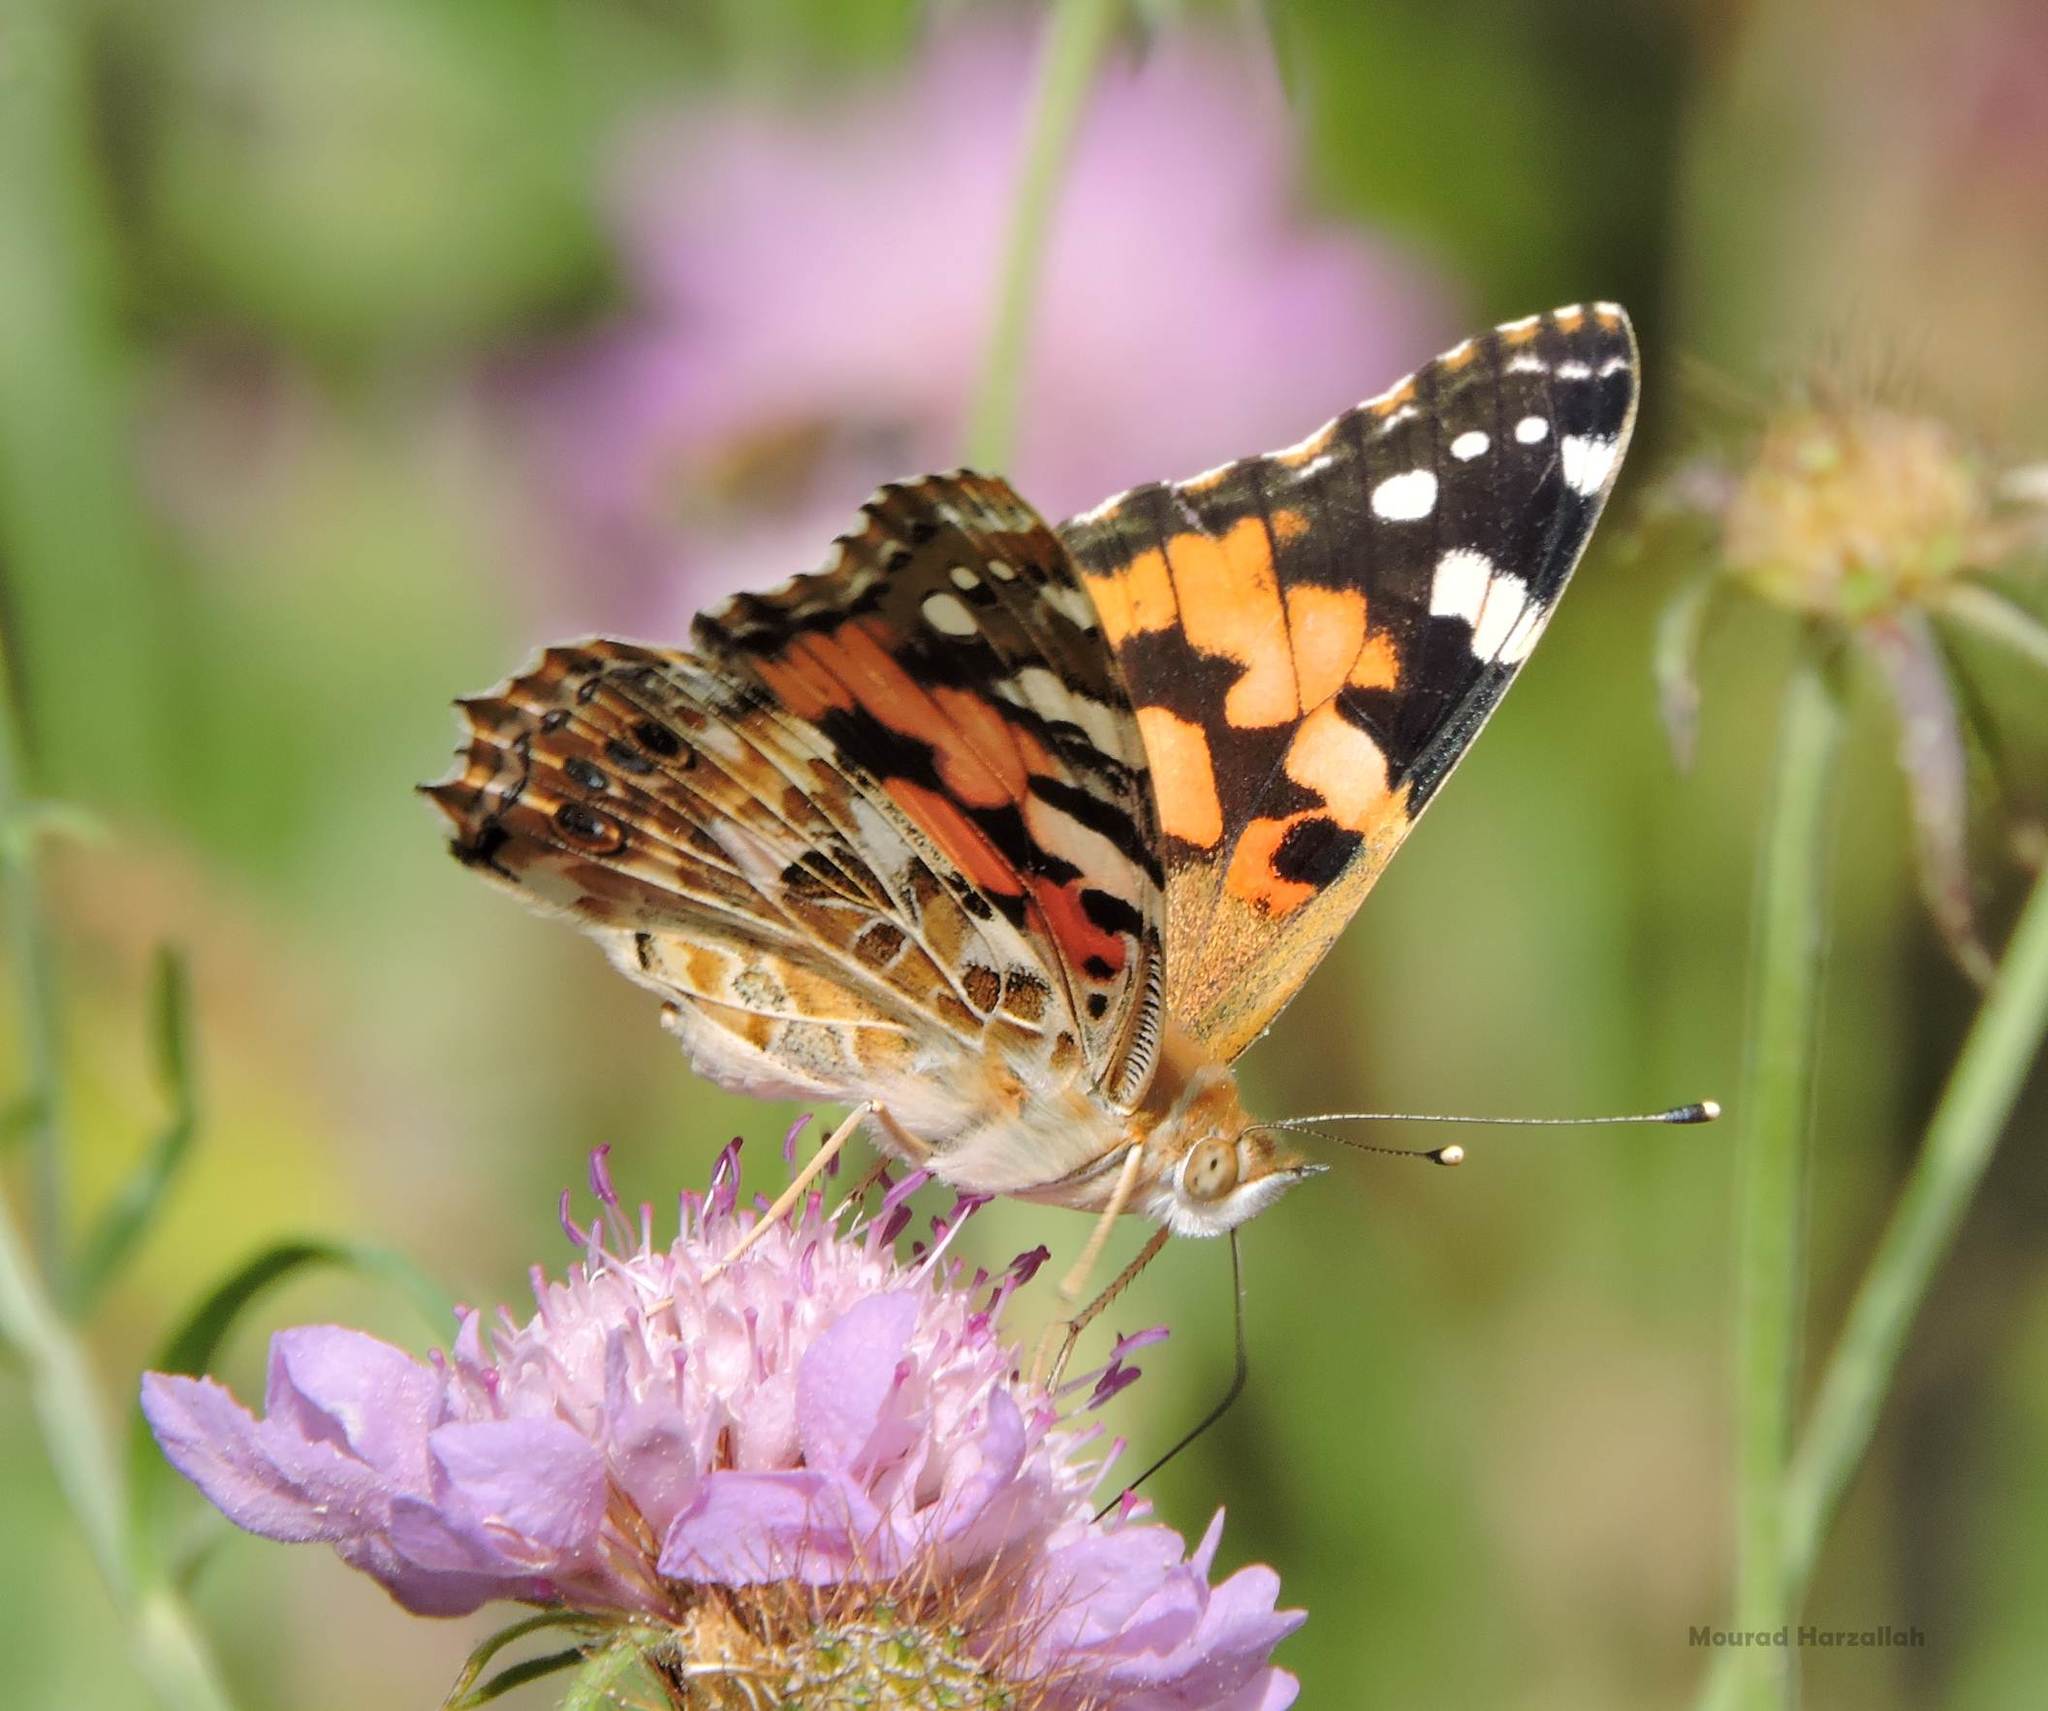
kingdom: Animalia
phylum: Arthropoda
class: Insecta
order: Lepidoptera
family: Nymphalidae
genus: Vanessa
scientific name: Vanessa cardui
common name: Painted lady
